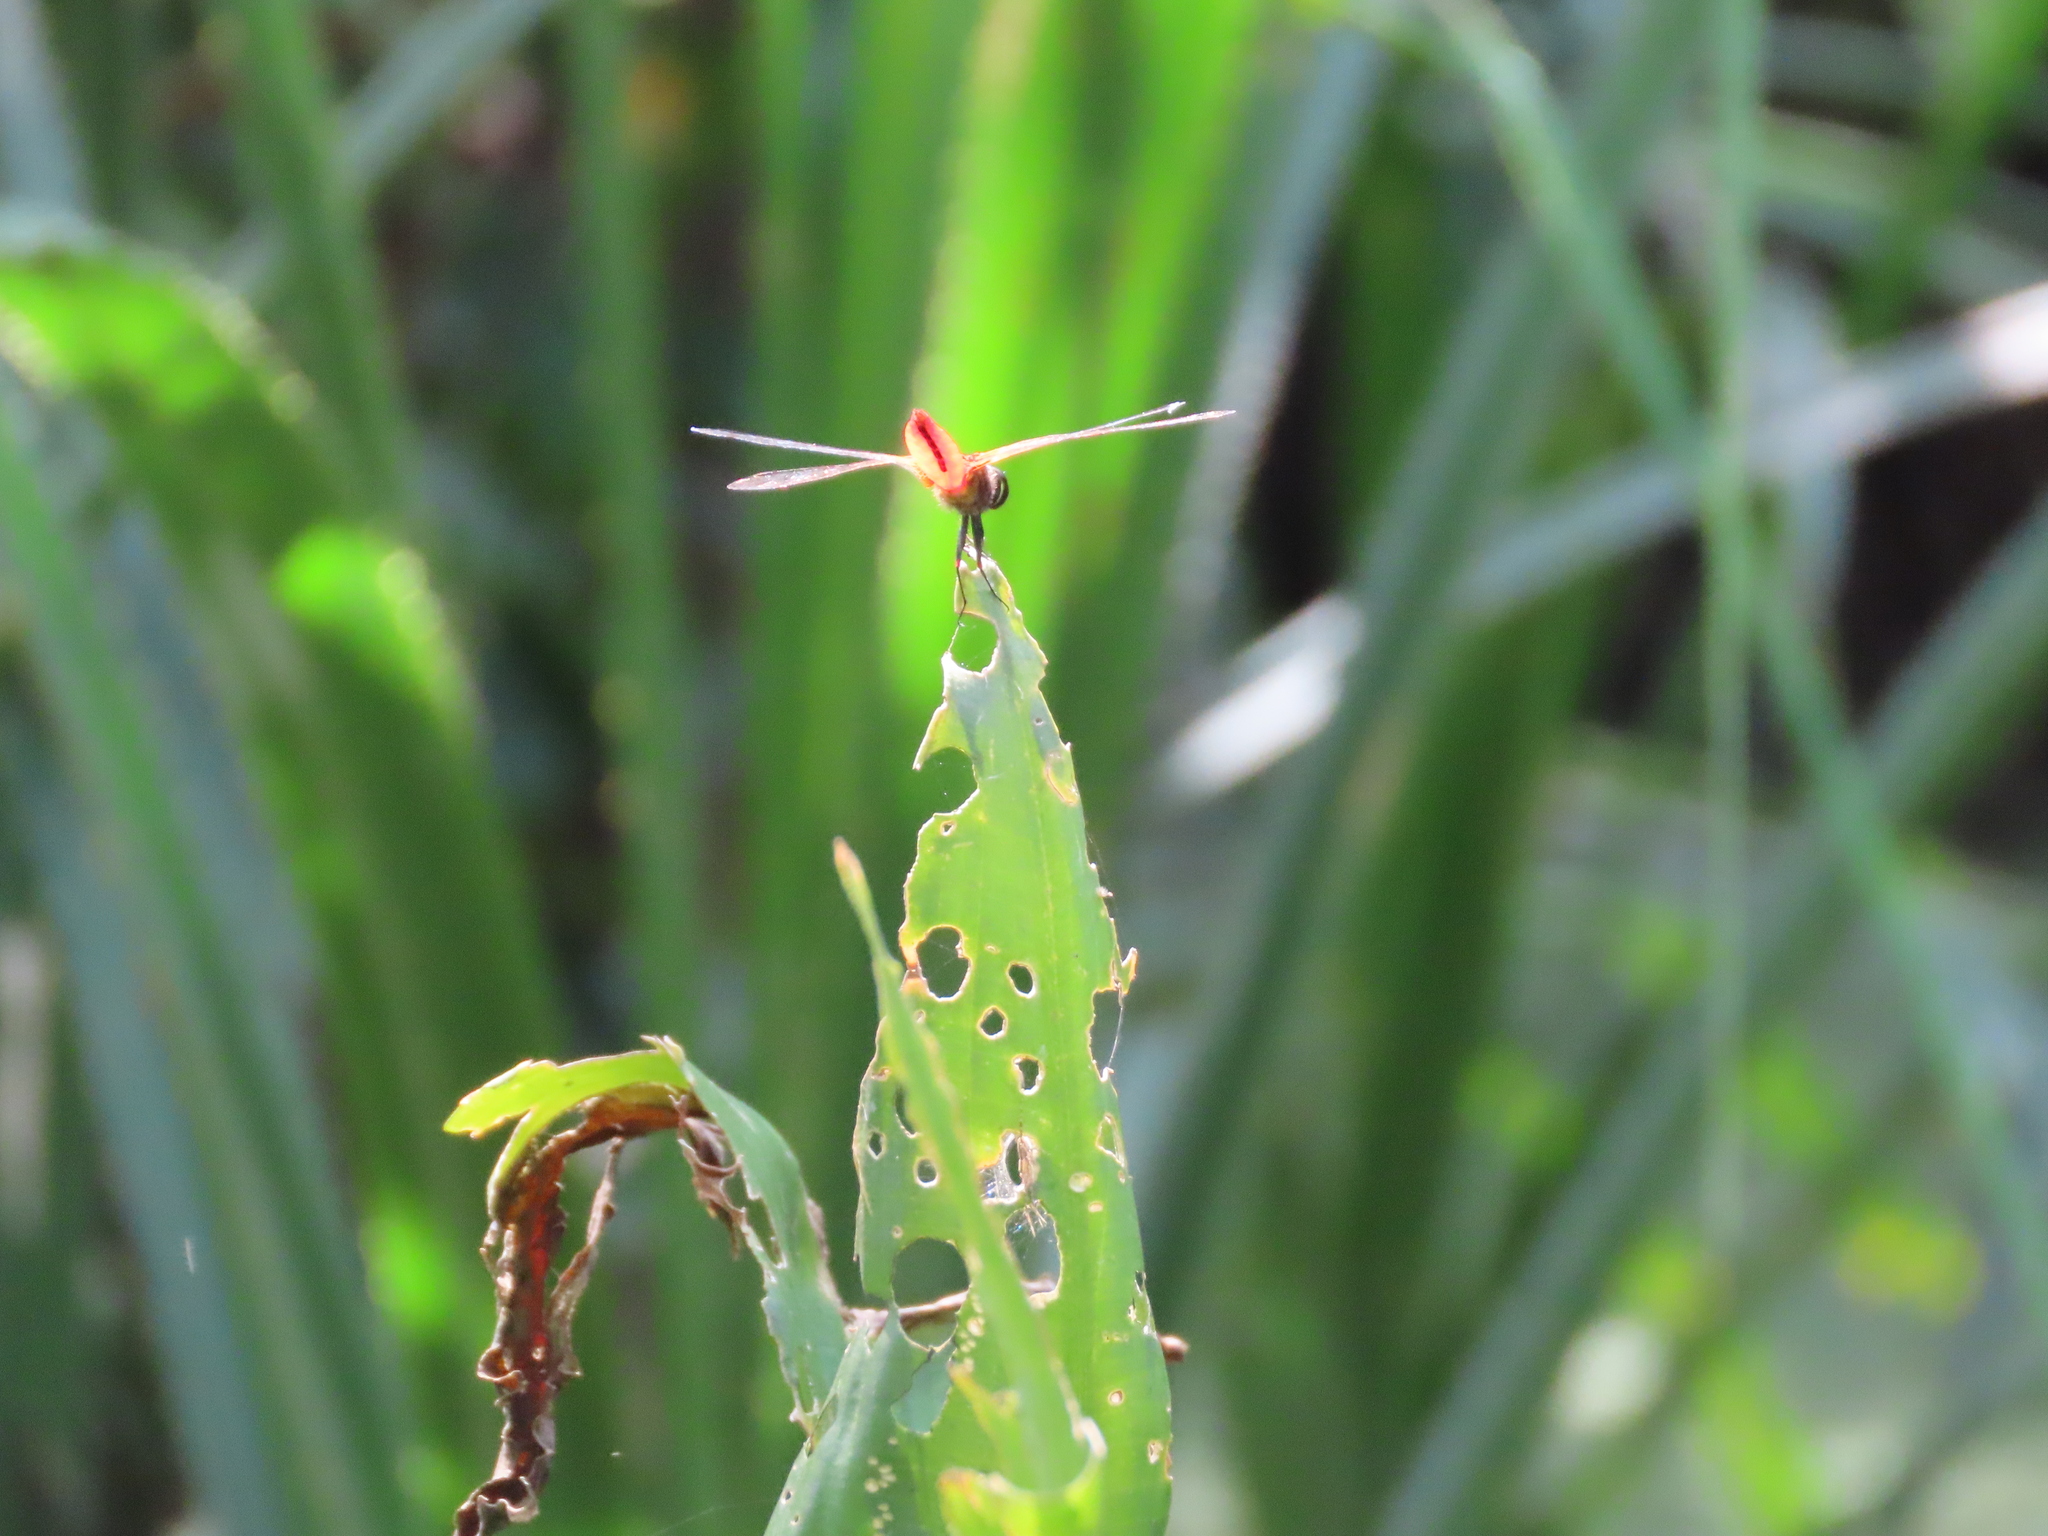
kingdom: Animalia
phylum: Arthropoda
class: Insecta
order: Odonata
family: Libellulidae
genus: Aethriamanta
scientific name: Aethriamanta brevipennis
